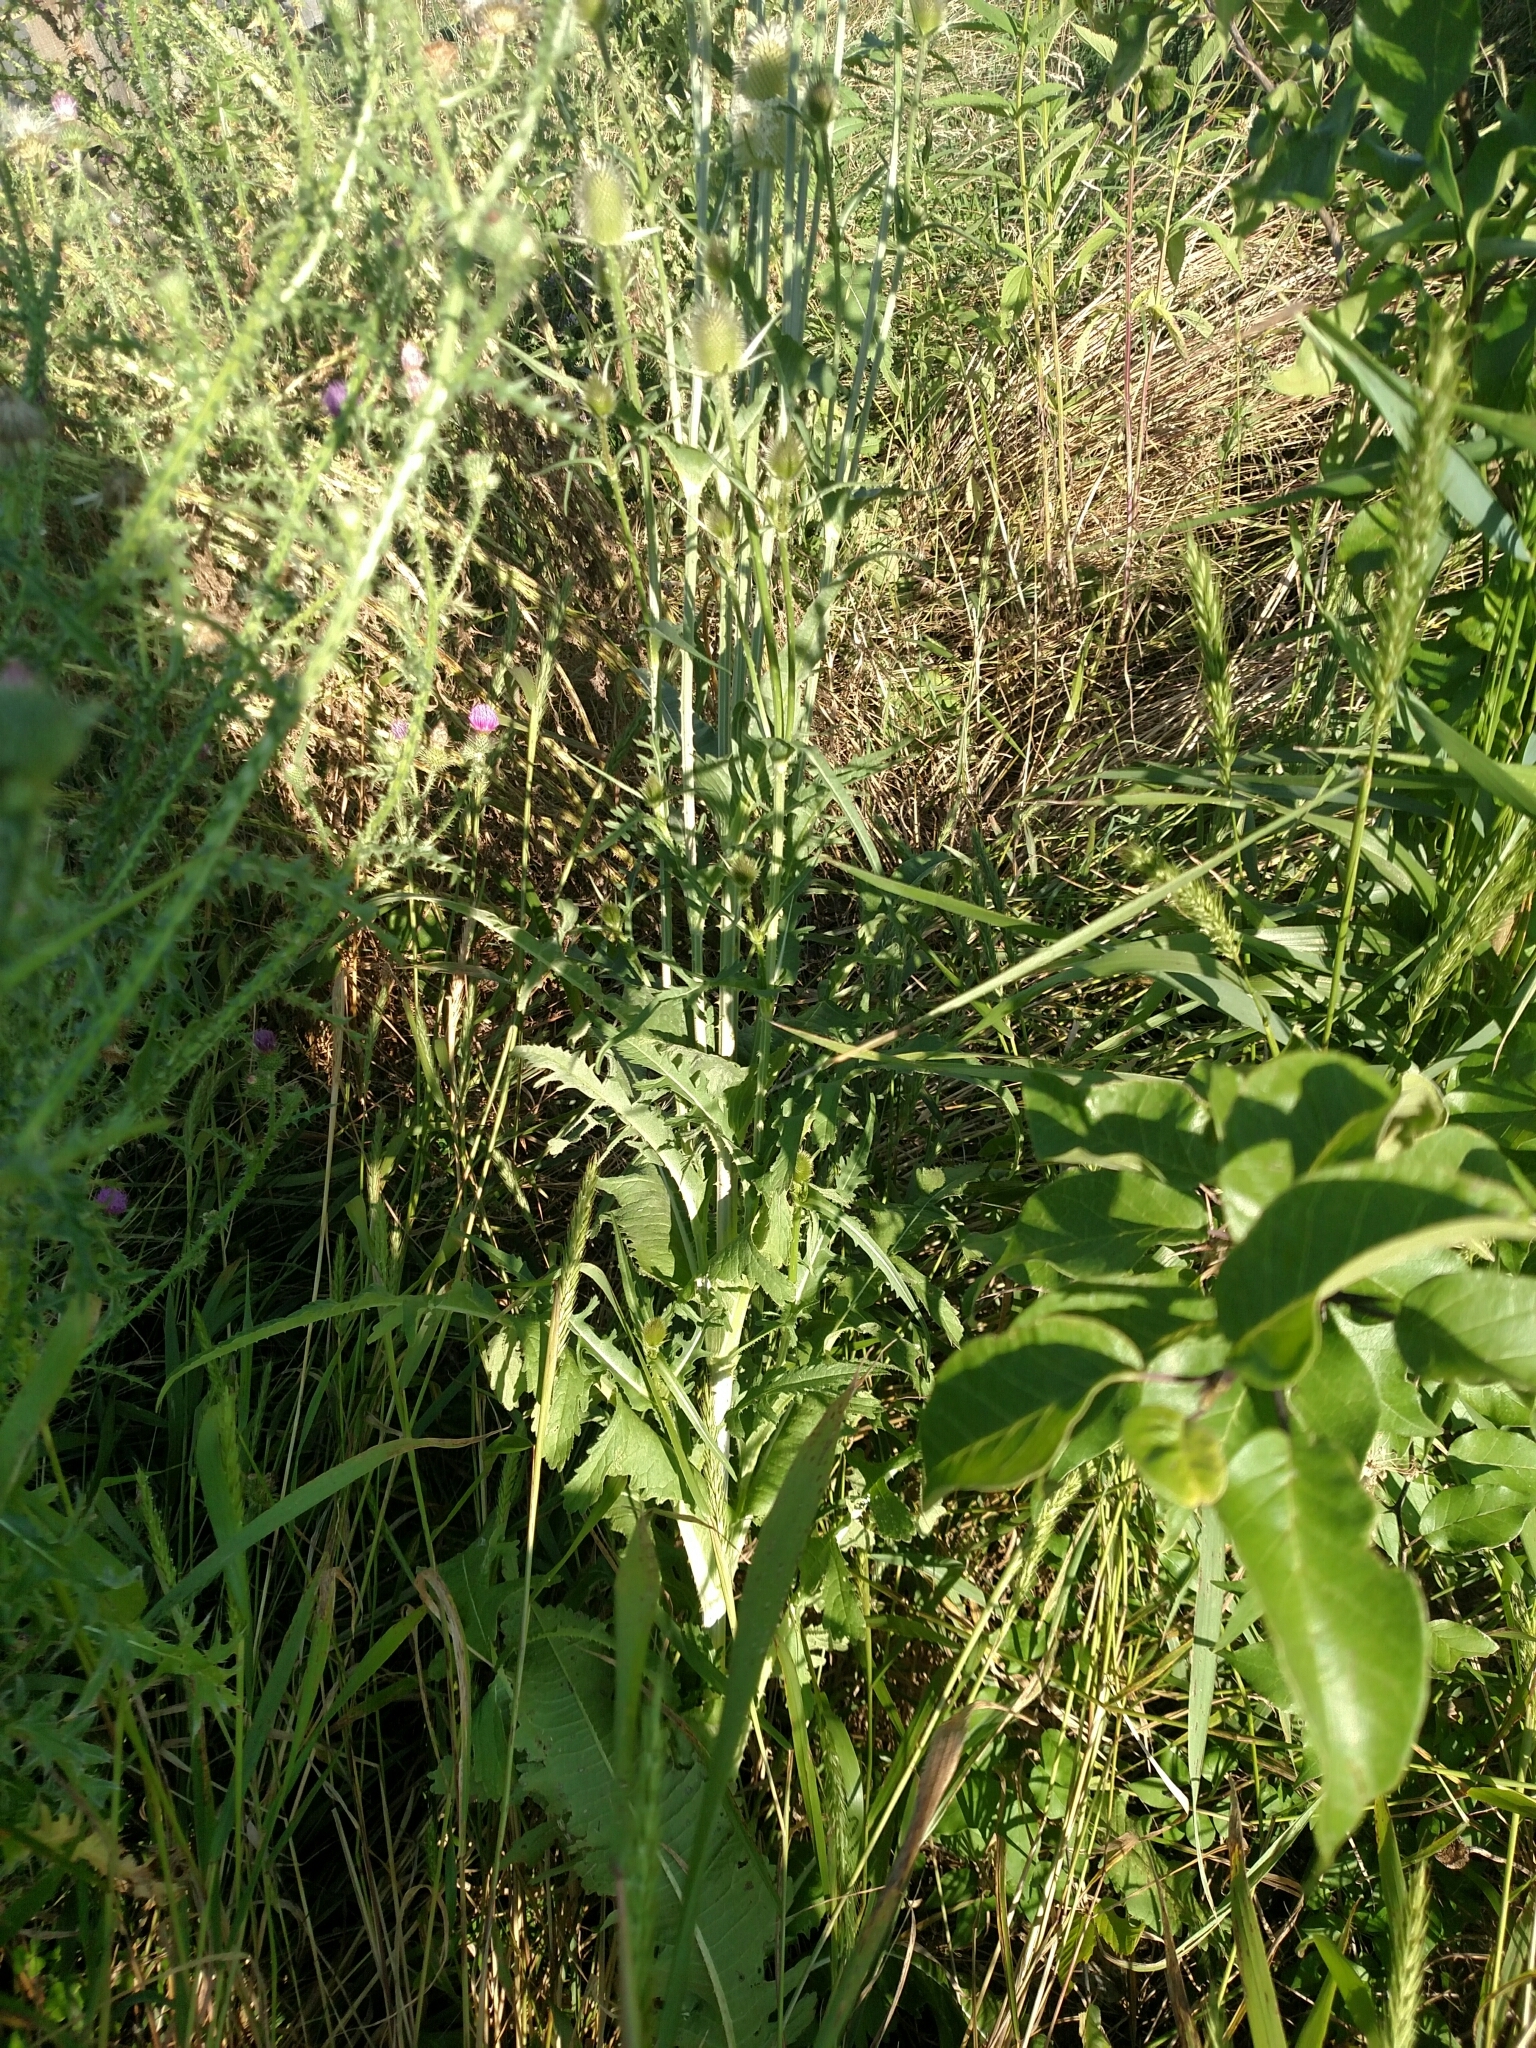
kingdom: Plantae
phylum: Tracheophyta
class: Magnoliopsida
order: Dipsacales
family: Caprifoliaceae
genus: Dipsacus
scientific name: Dipsacus laciniatus
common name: Cut-leaved teasel
